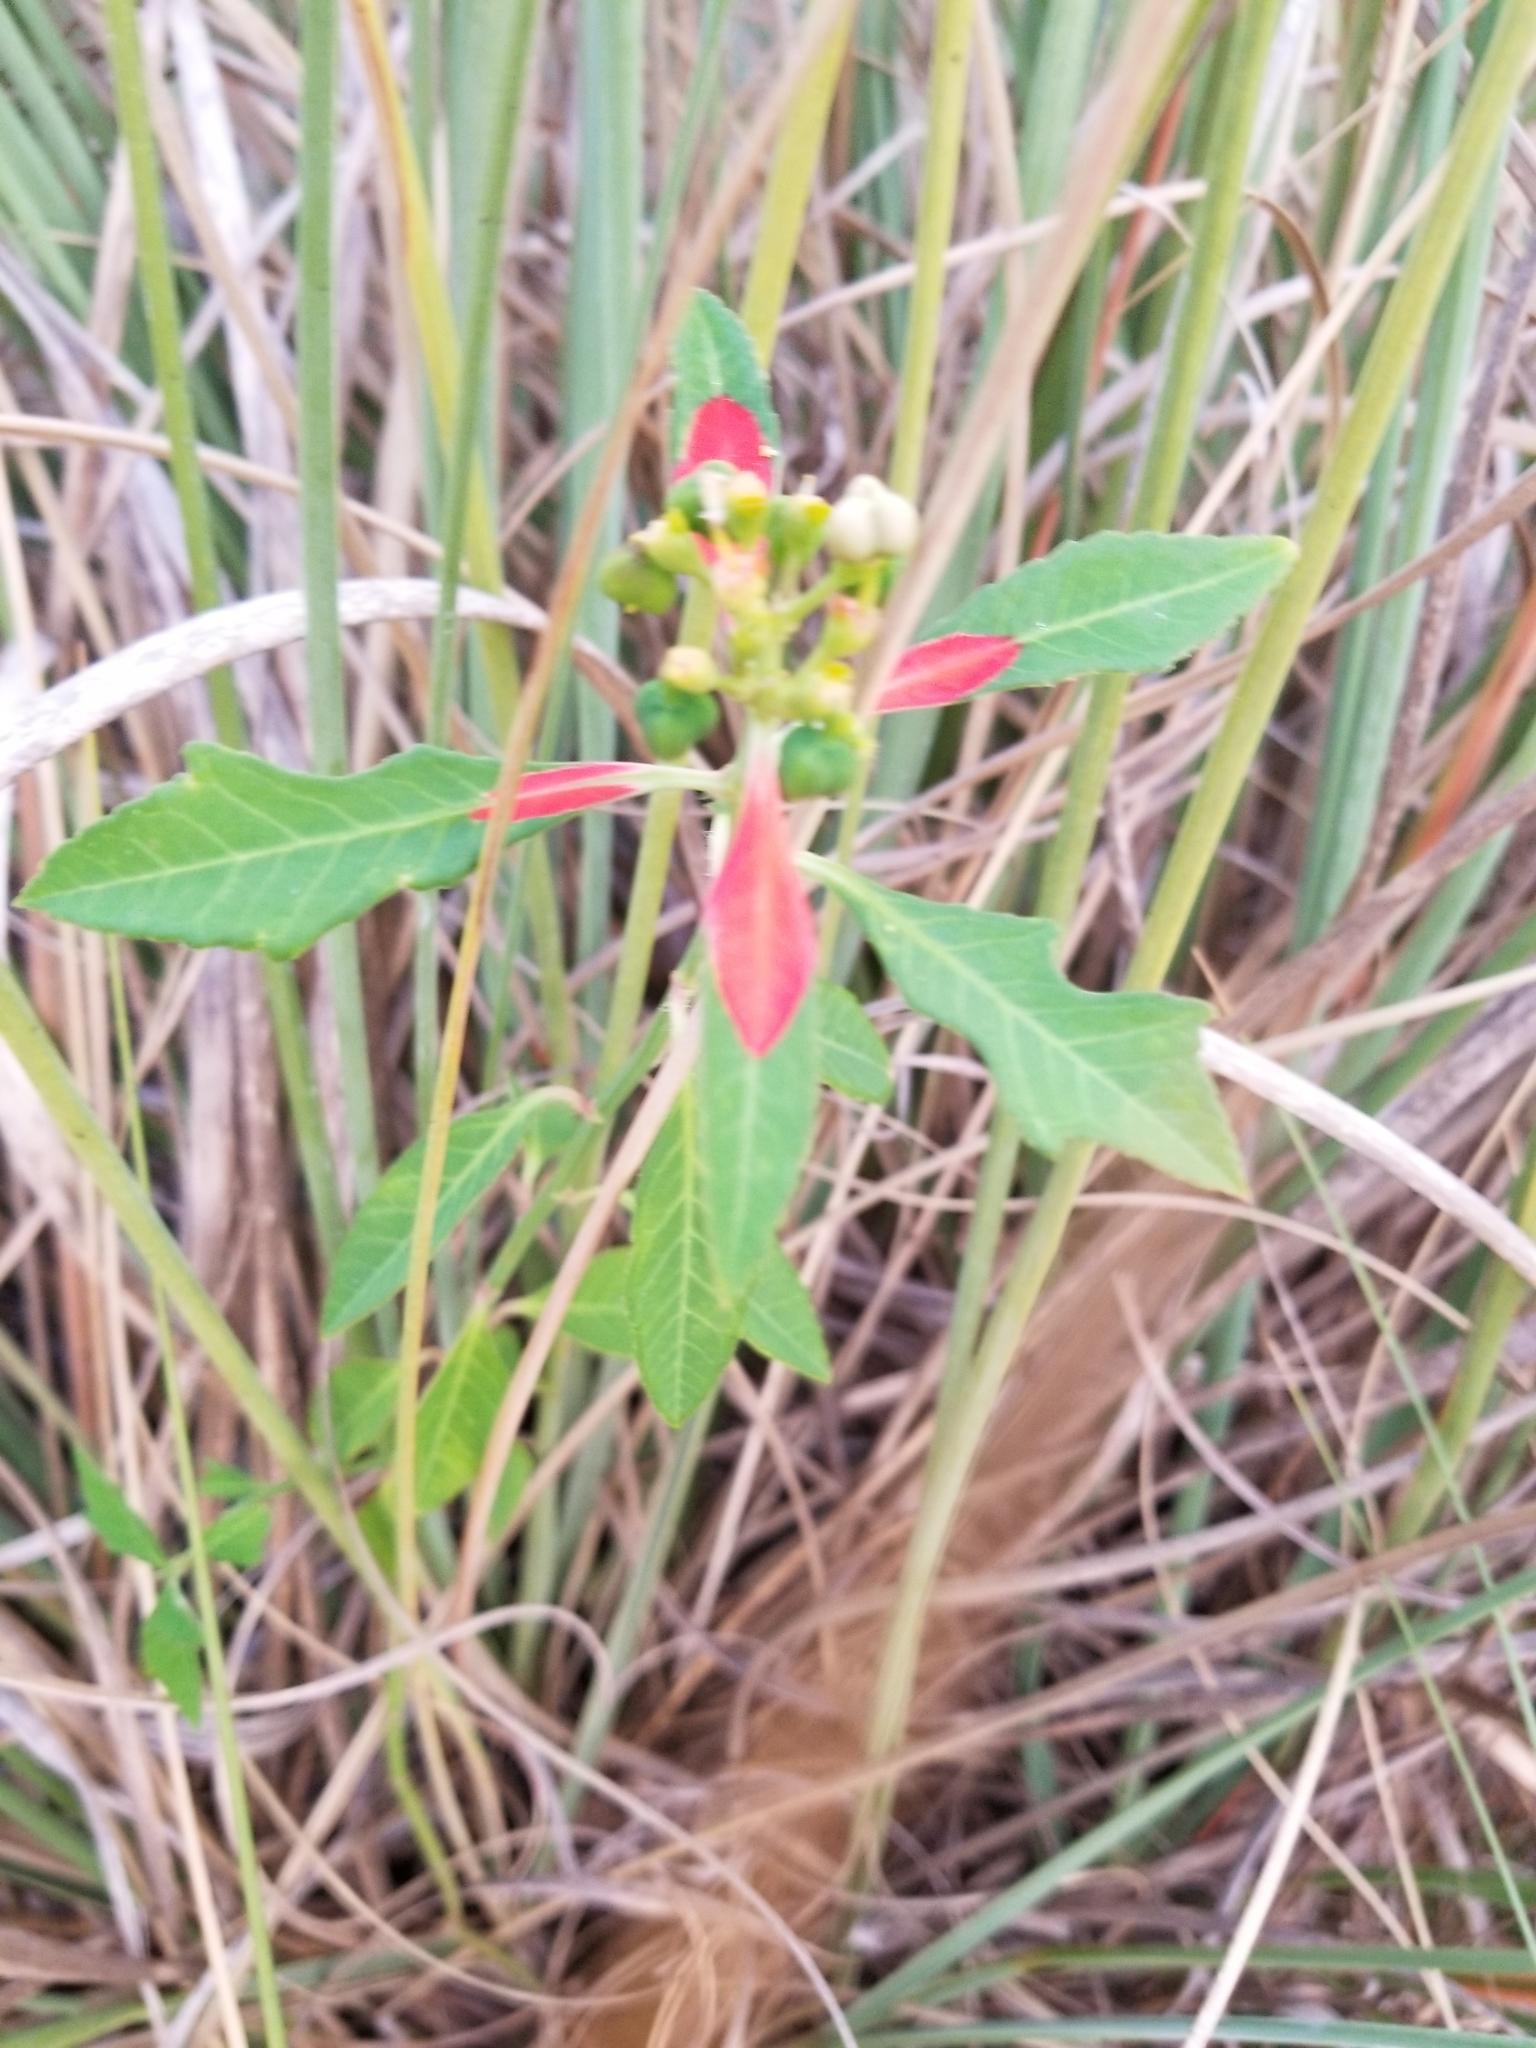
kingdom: Plantae
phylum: Tracheophyta
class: Magnoliopsida
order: Malpighiales
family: Euphorbiaceae
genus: Euphorbia
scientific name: Euphorbia heterophylla
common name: Mexican fireplant
